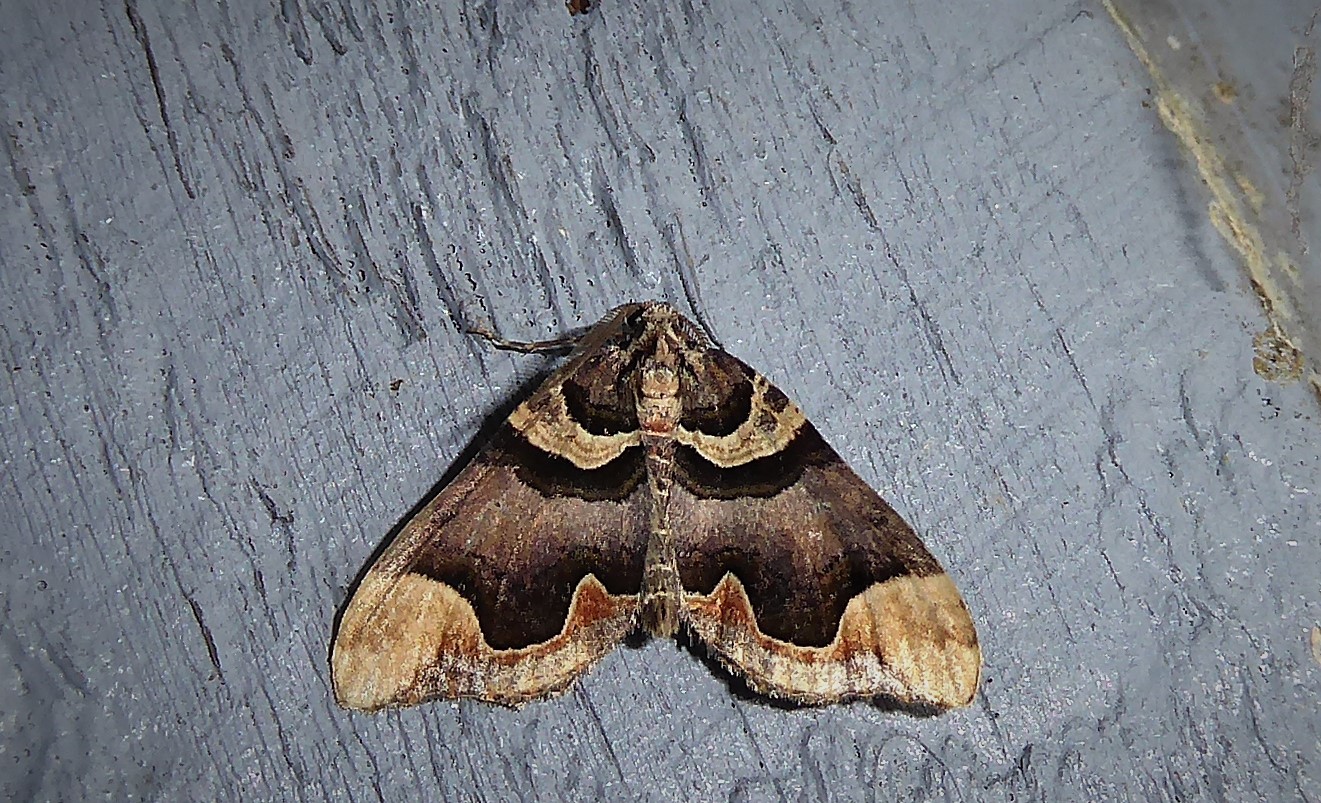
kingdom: Animalia
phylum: Arthropoda
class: Insecta
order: Lepidoptera
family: Geometridae
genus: Asaphodes
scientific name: Asaphodes chlamydota
